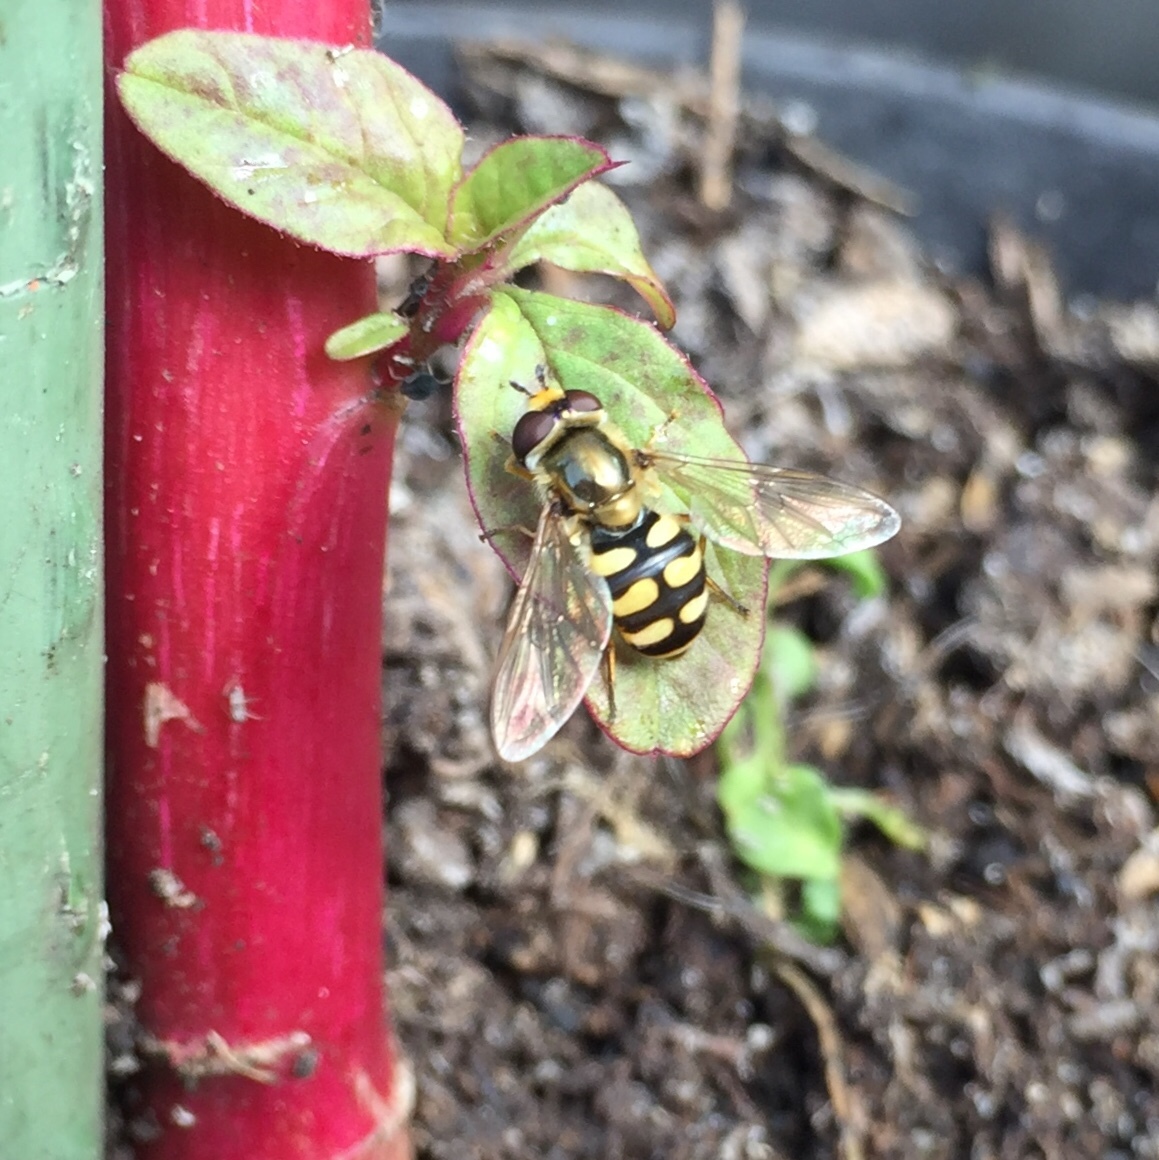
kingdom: Animalia
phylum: Arthropoda
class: Insecta
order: Diptera
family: Syrphidae
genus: Eupeodes
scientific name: Eupeodes corollae
